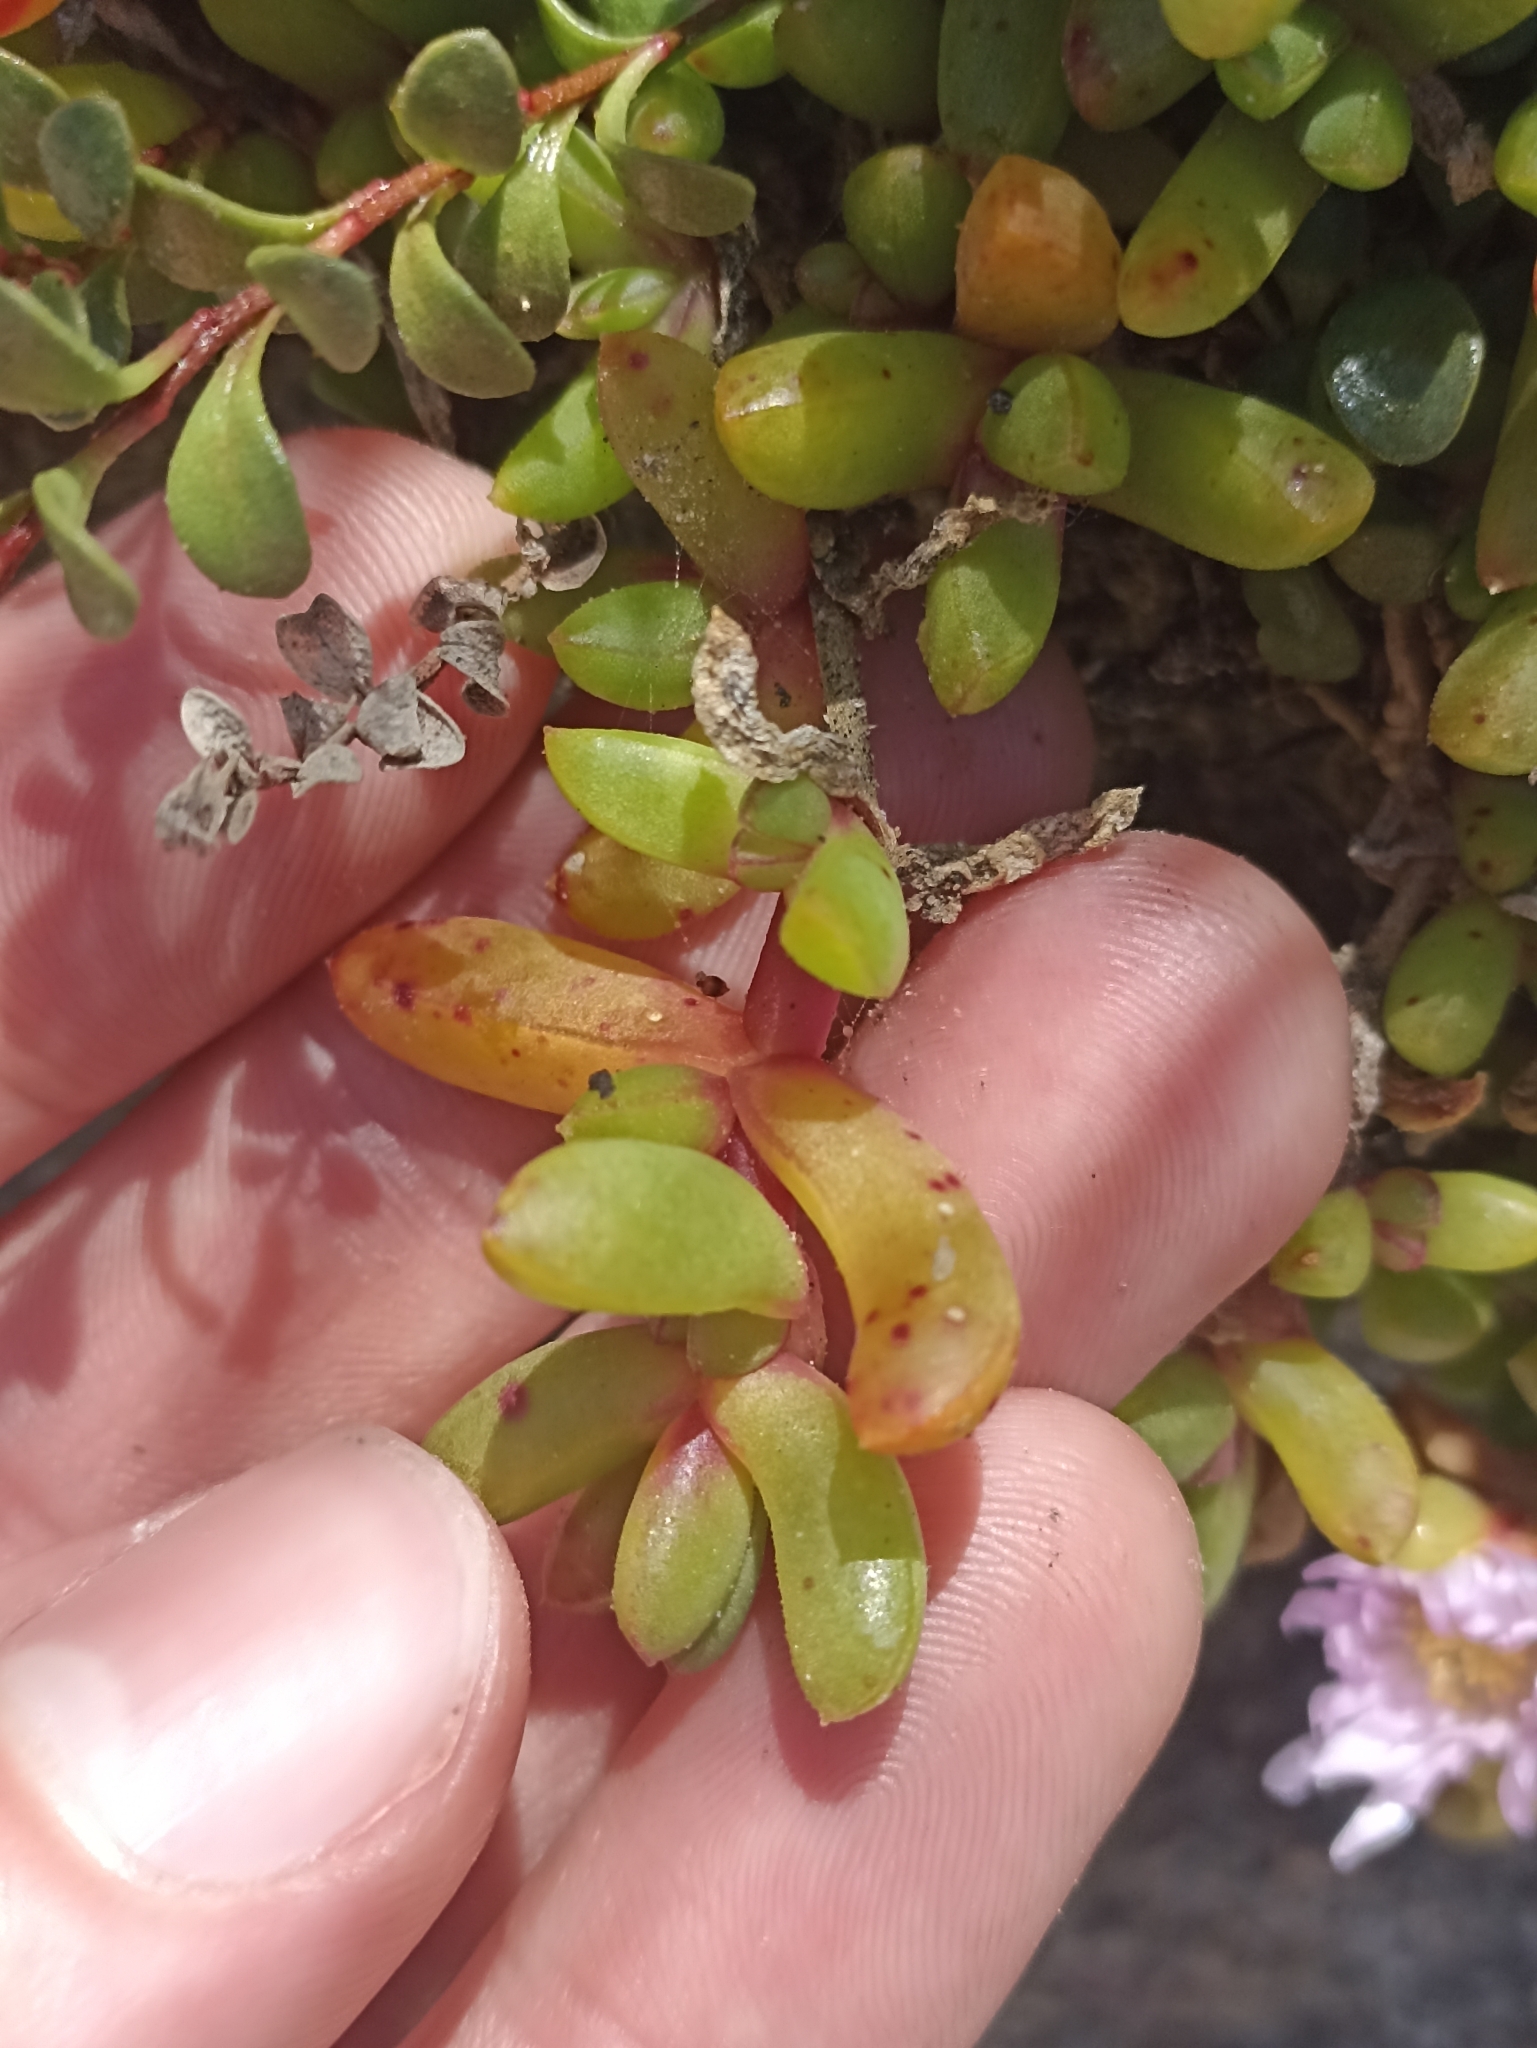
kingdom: Plantae
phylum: Tracheophyta
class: Magnoliopsida
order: Caryophyllales
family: Aizoaceae
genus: Disphyma
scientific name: Disphyma australe
